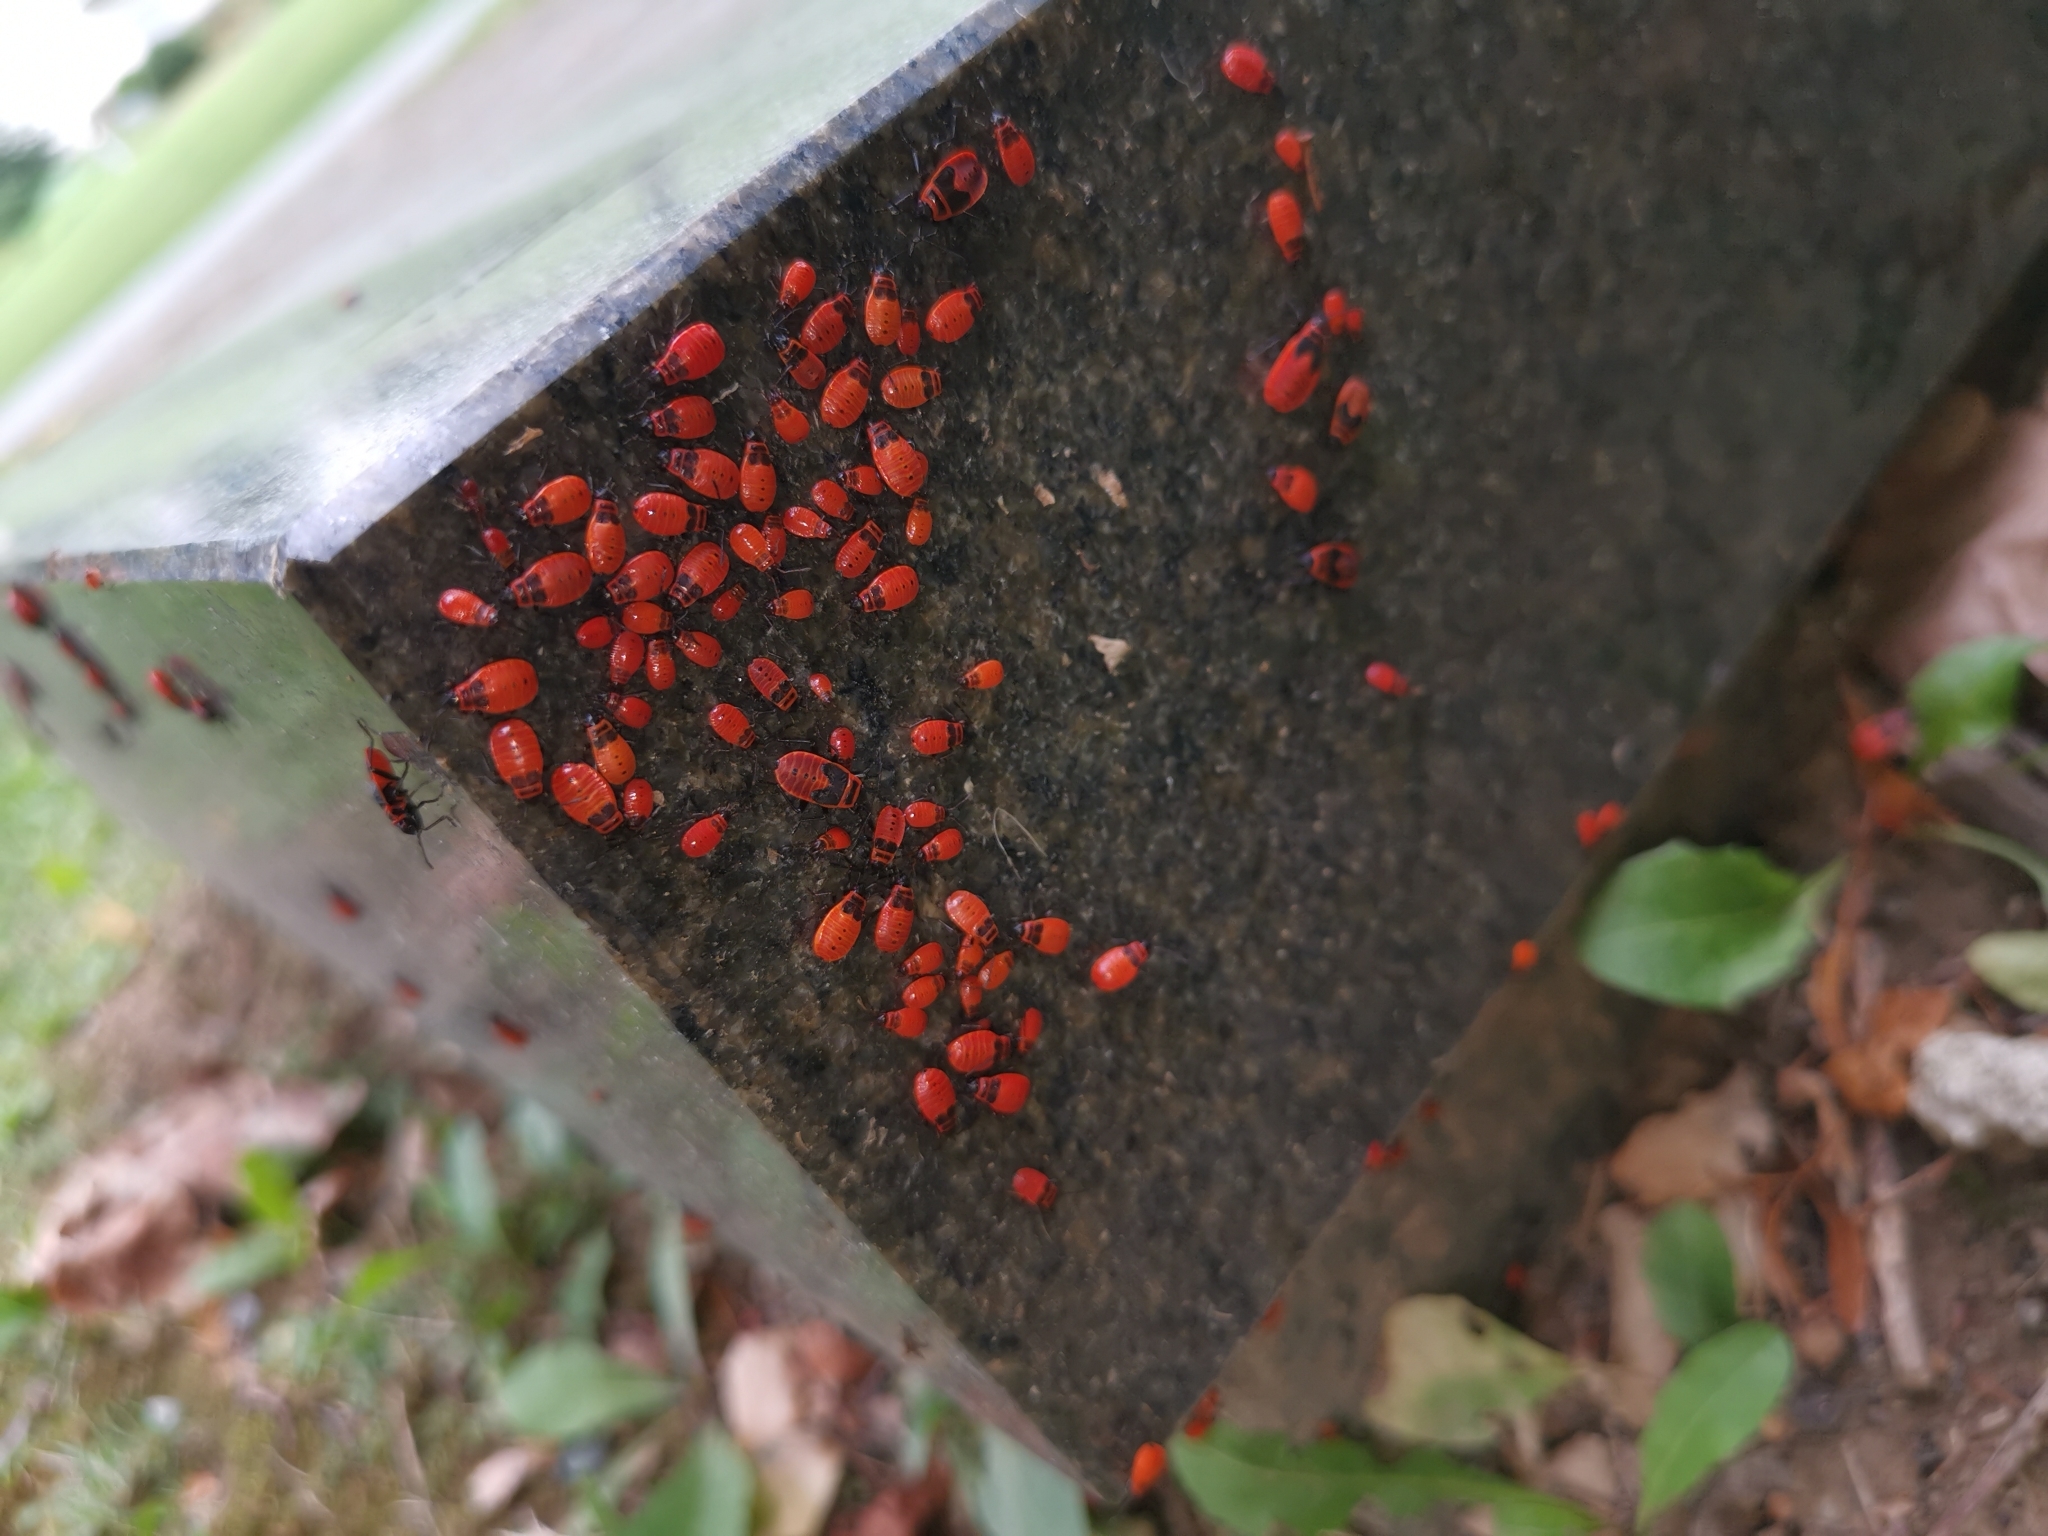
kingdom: Animalia
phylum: Arthropoda
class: Insecta
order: Hemiptera
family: Pyrrhocoridae
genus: Pyrrhocoris
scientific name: Pyrrhocoris apterus
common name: Firebug
